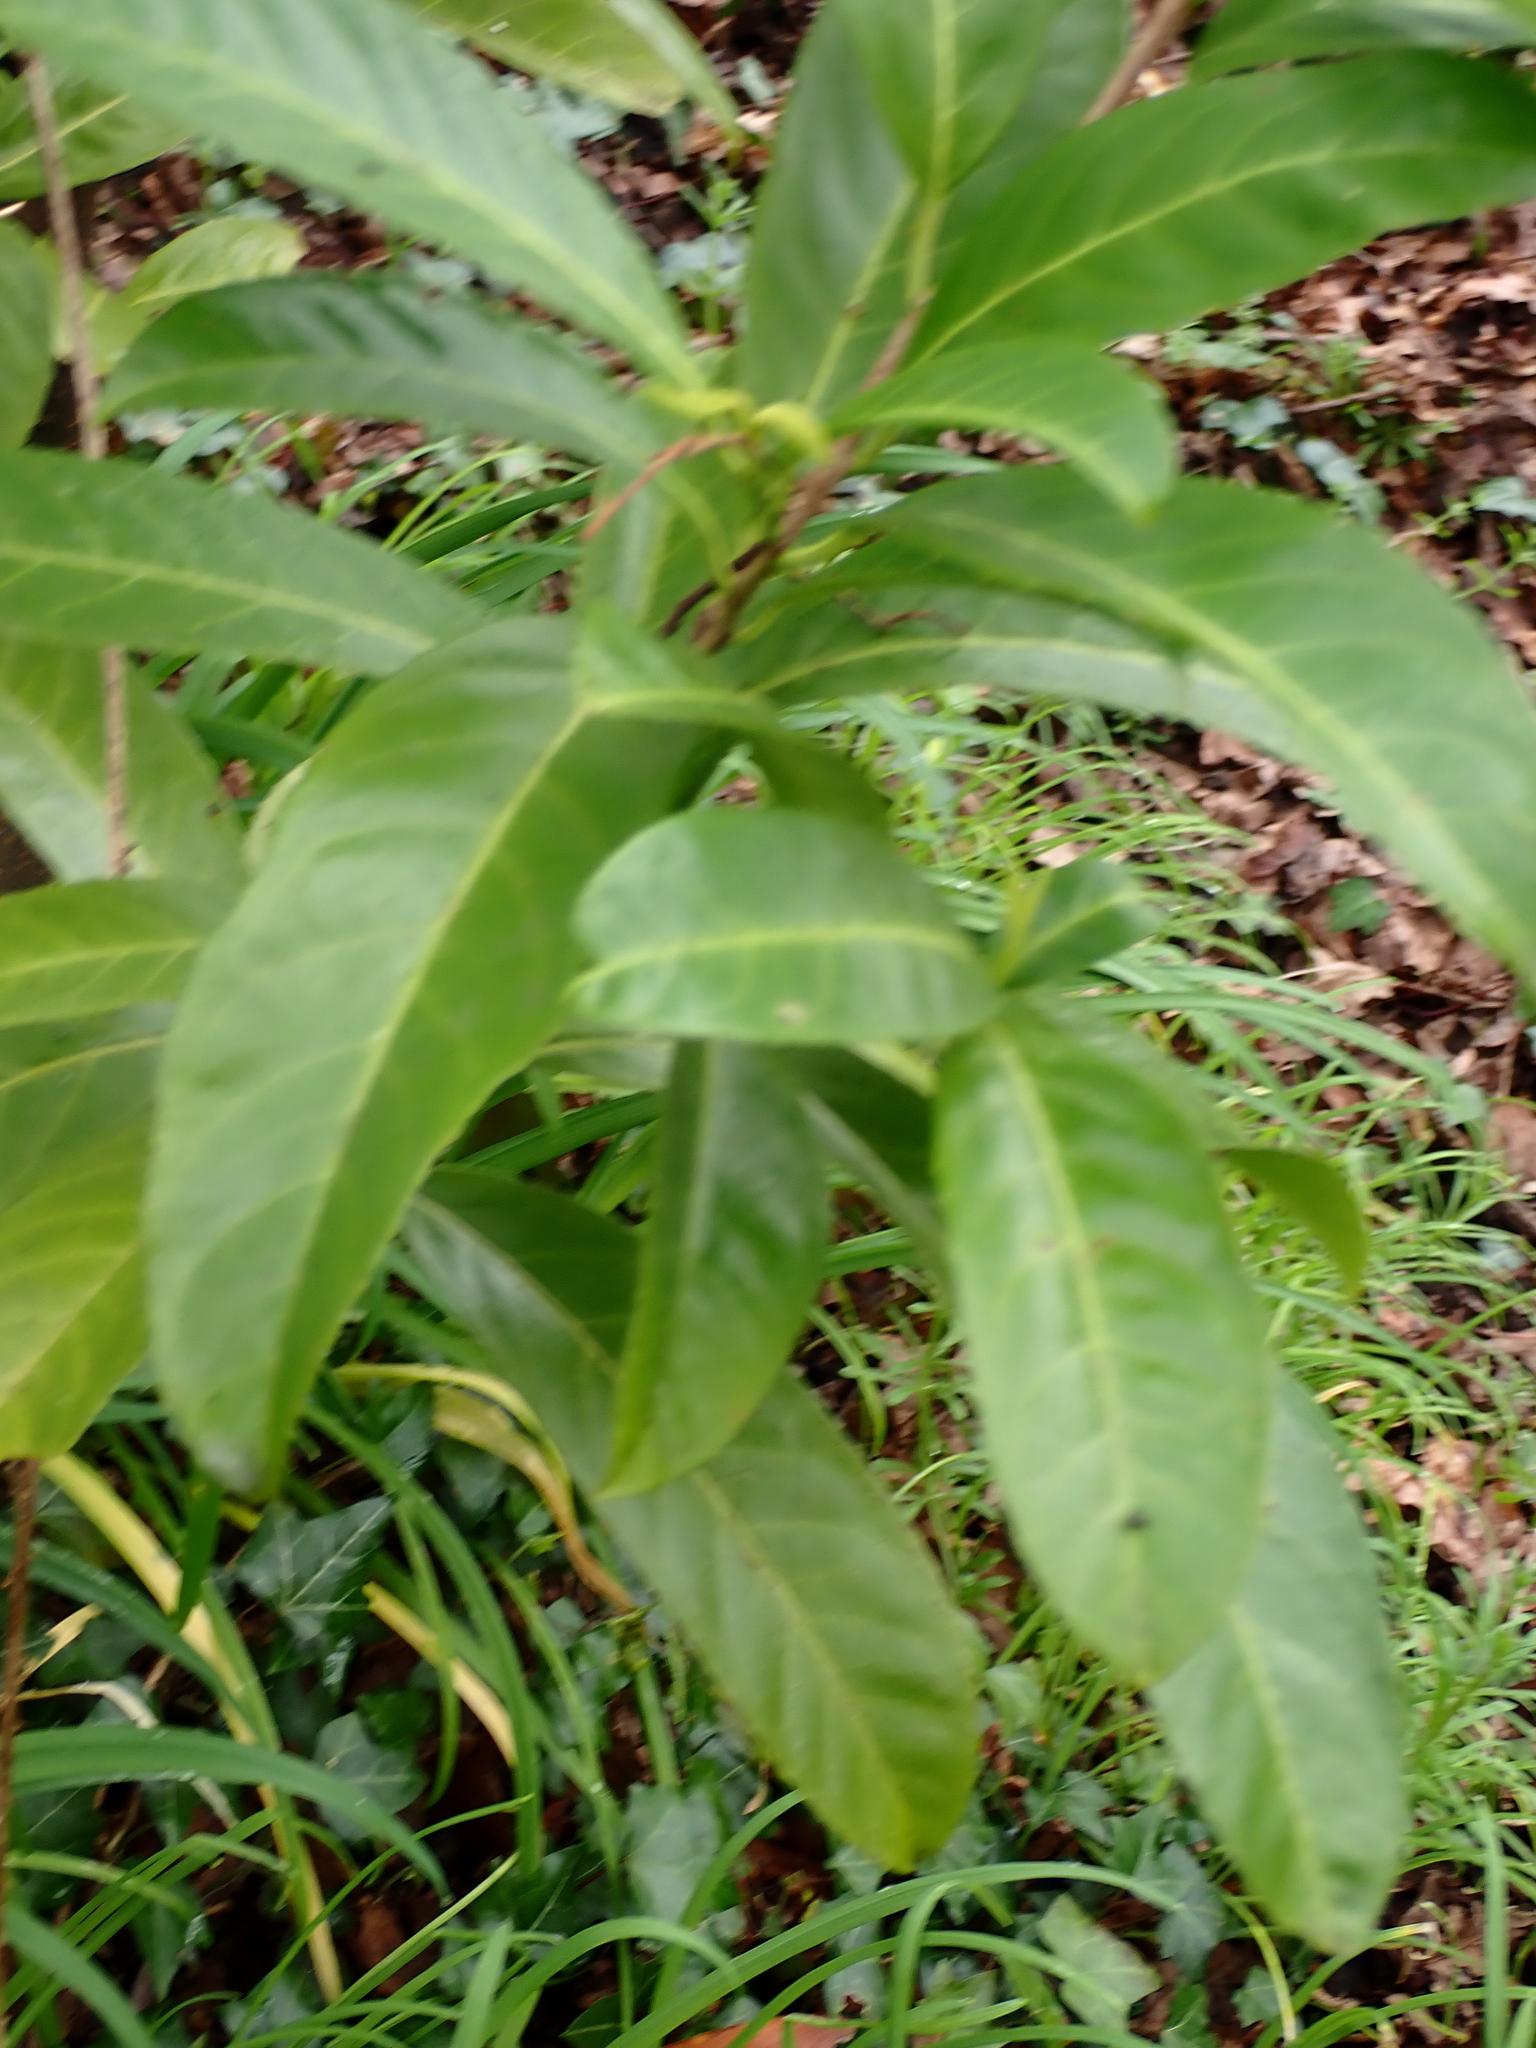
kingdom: Plantae
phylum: Tracheophyta
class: Magnoliopsida
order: Rosales
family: Rosaceae
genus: Prunus
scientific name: Prunus laurocerasus
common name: Cherry laurel
